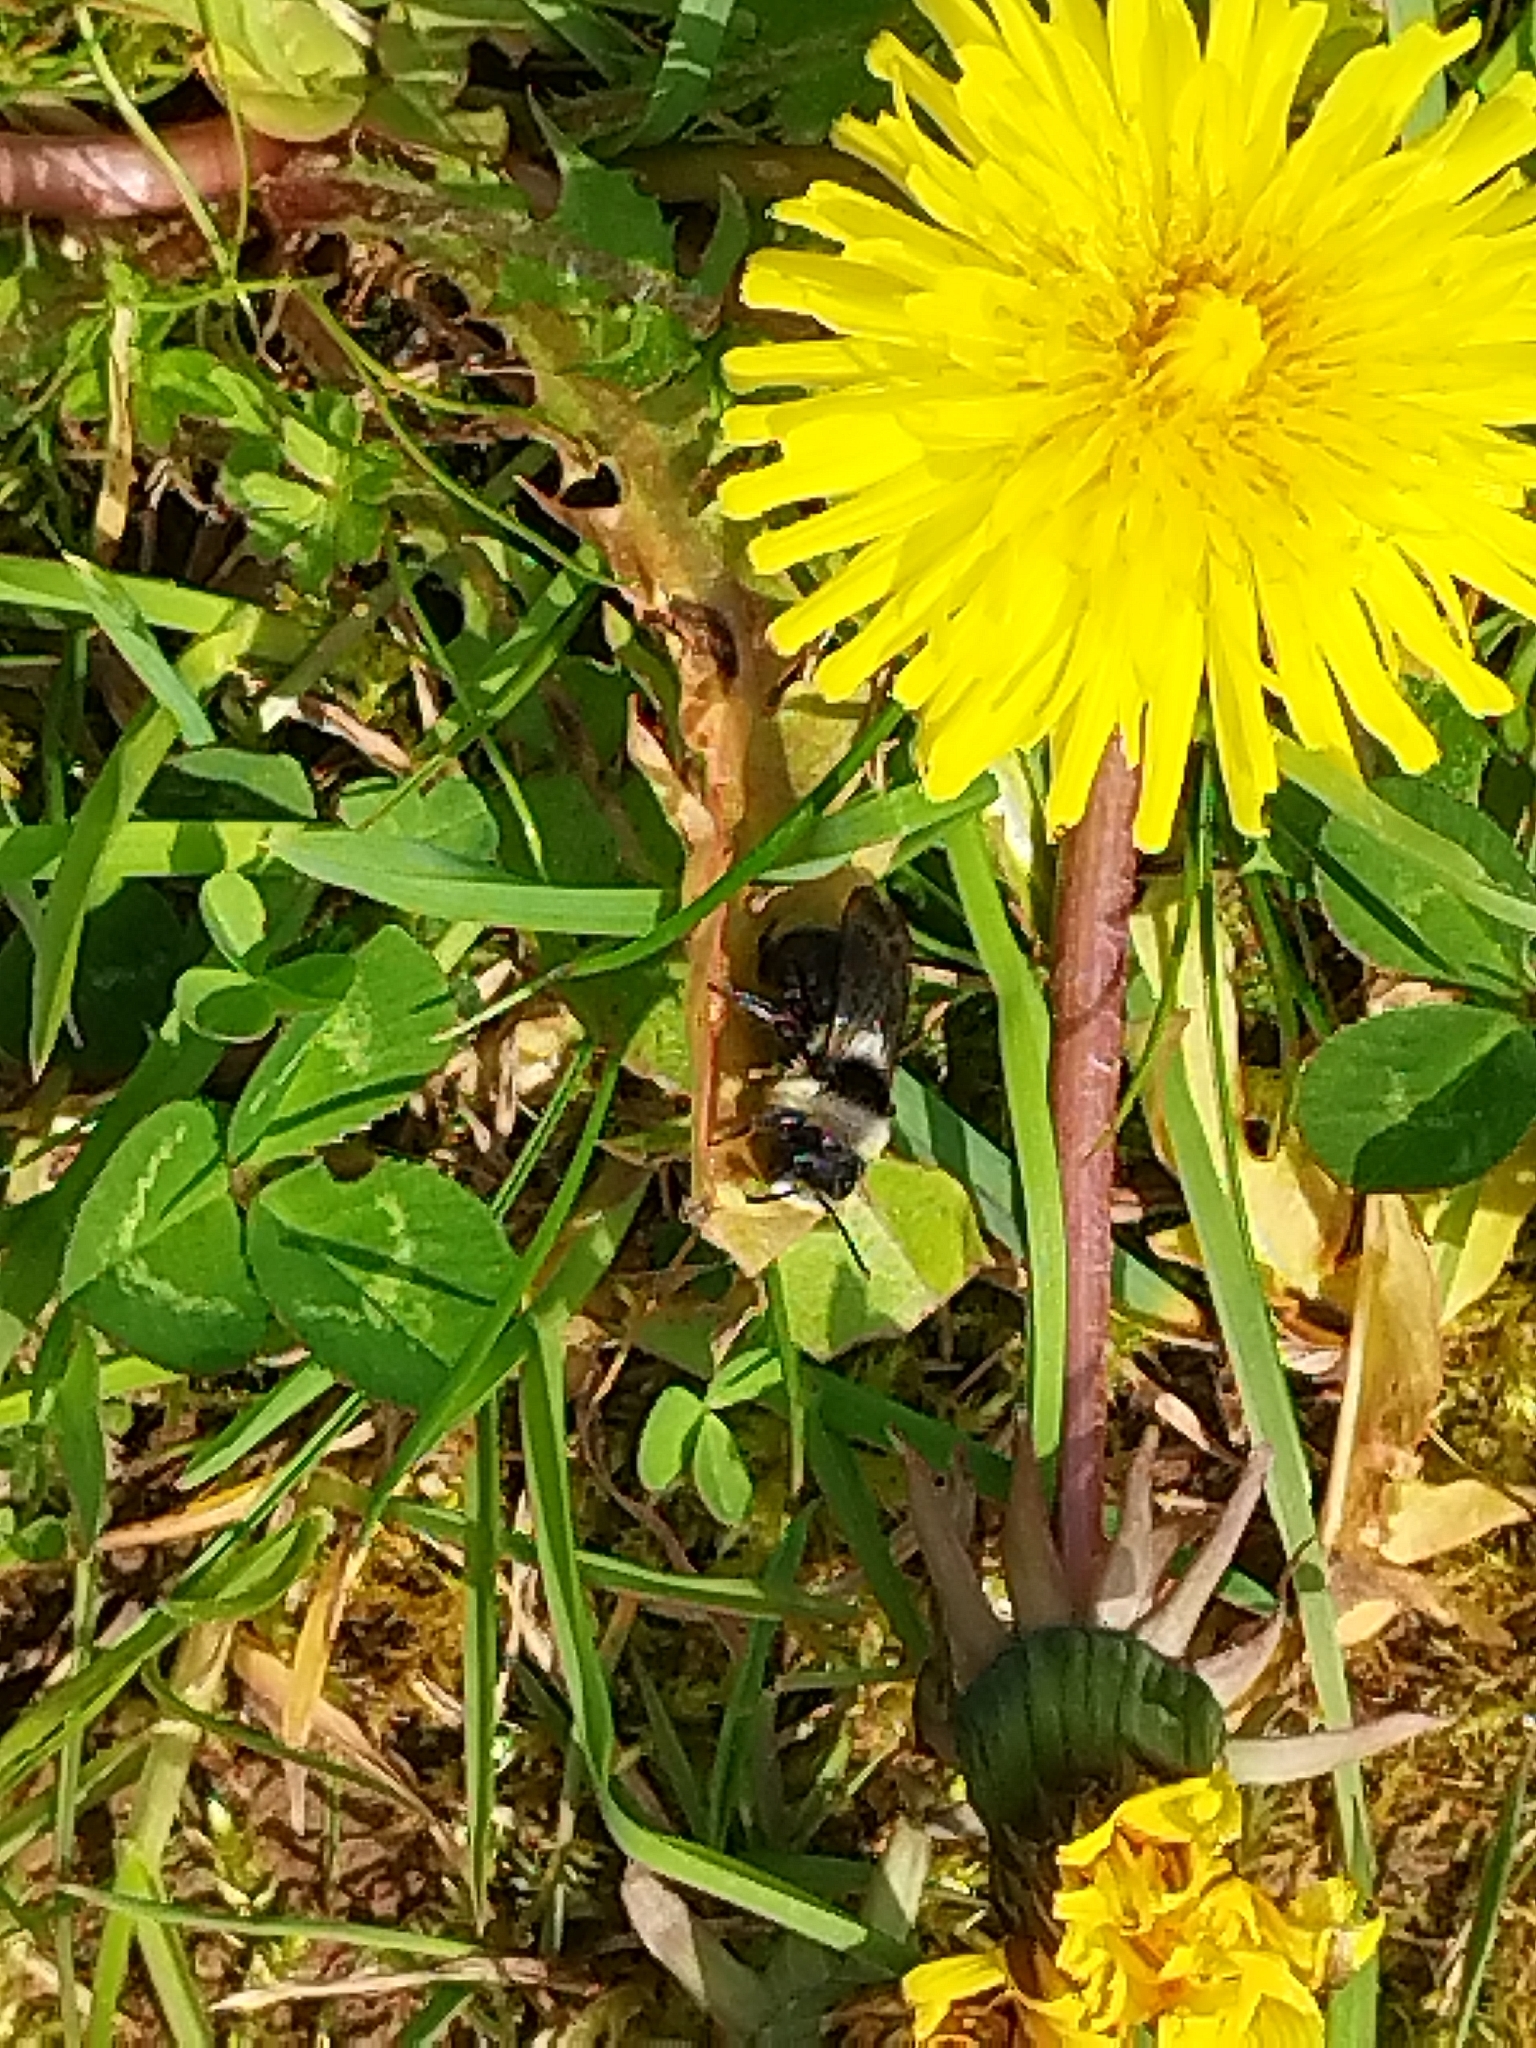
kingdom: Animalia
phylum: Arthropoda
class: Insecta
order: Hymenoptera
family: Andrenidae
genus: Andrena
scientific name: Andrena cineraria
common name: Ashy mining bee
